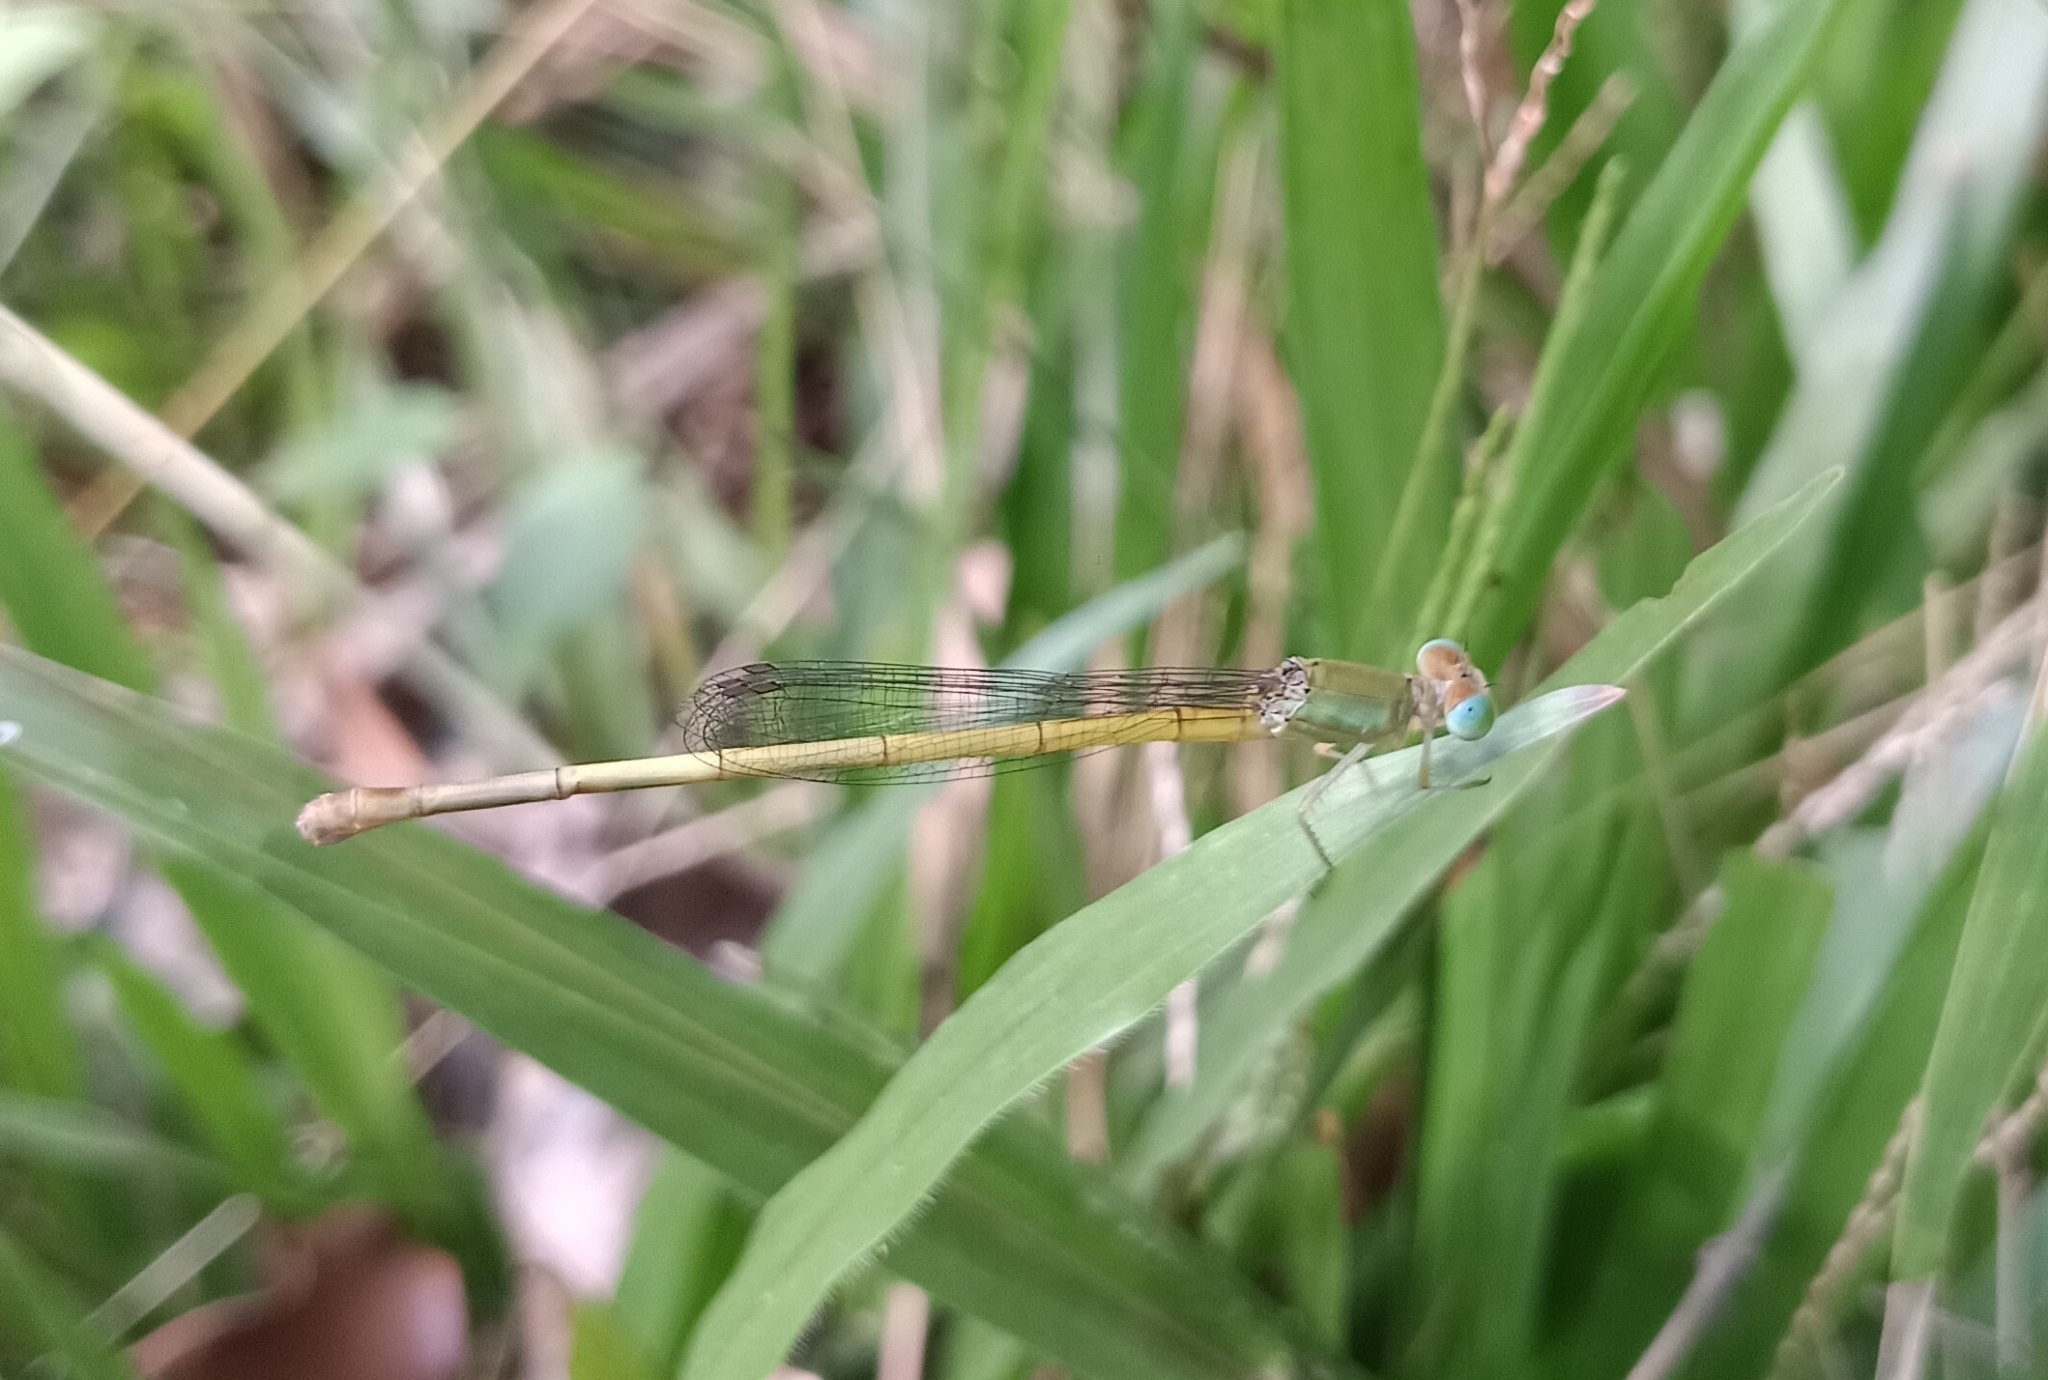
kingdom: Animalia
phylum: Arthropoda
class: Insecta
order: Odonata
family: Coenagrionidae
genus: Ceriagrion
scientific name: Ceriagrion coromandelianum
